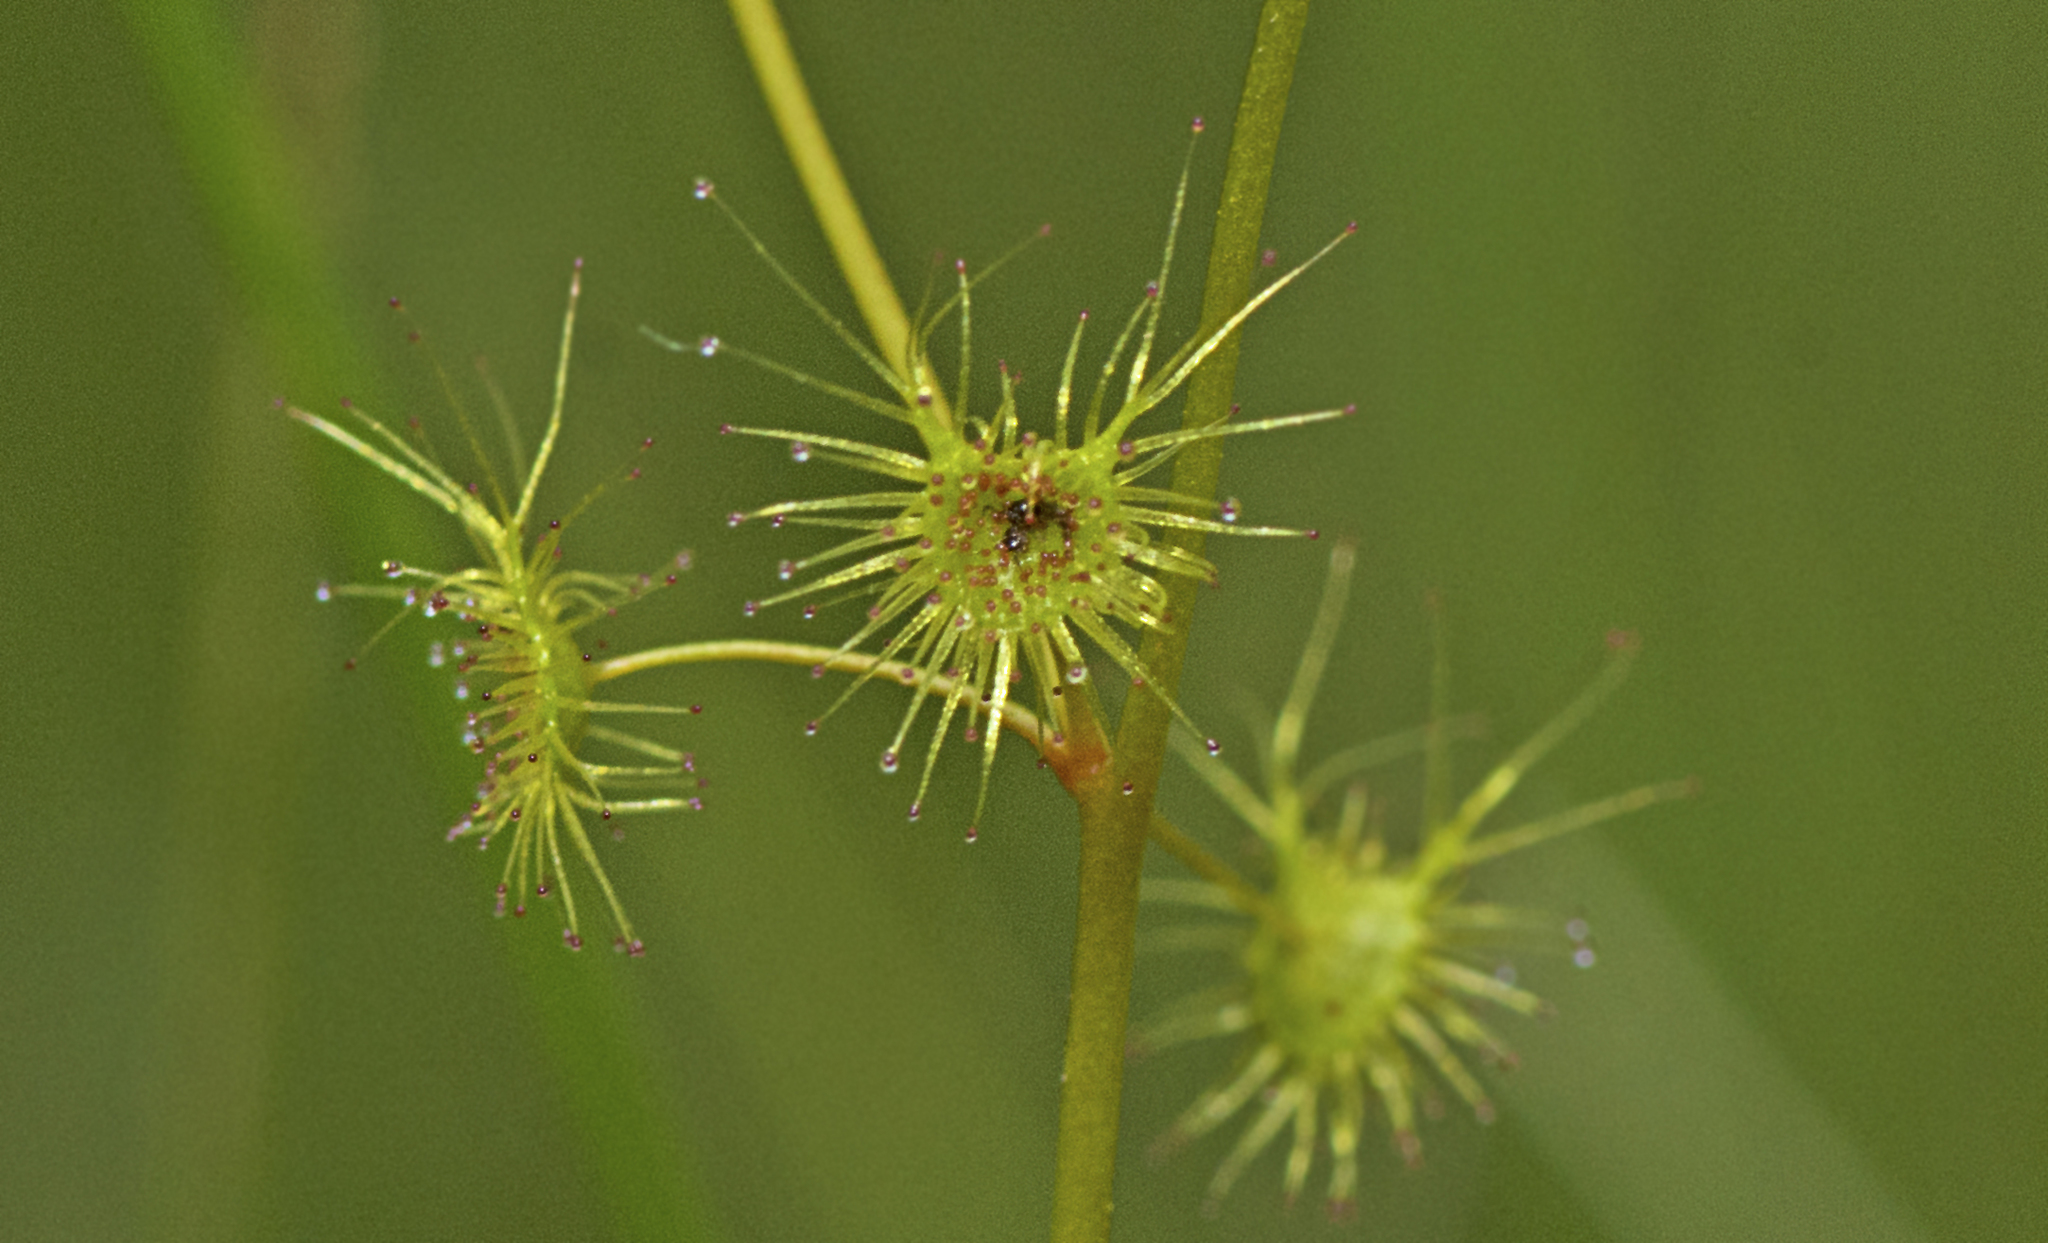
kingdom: Plantae
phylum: Tracheophyta
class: Magnoliopsida
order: Caryophyllales
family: Droseraceae
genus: Drosera
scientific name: Drosera peltata
